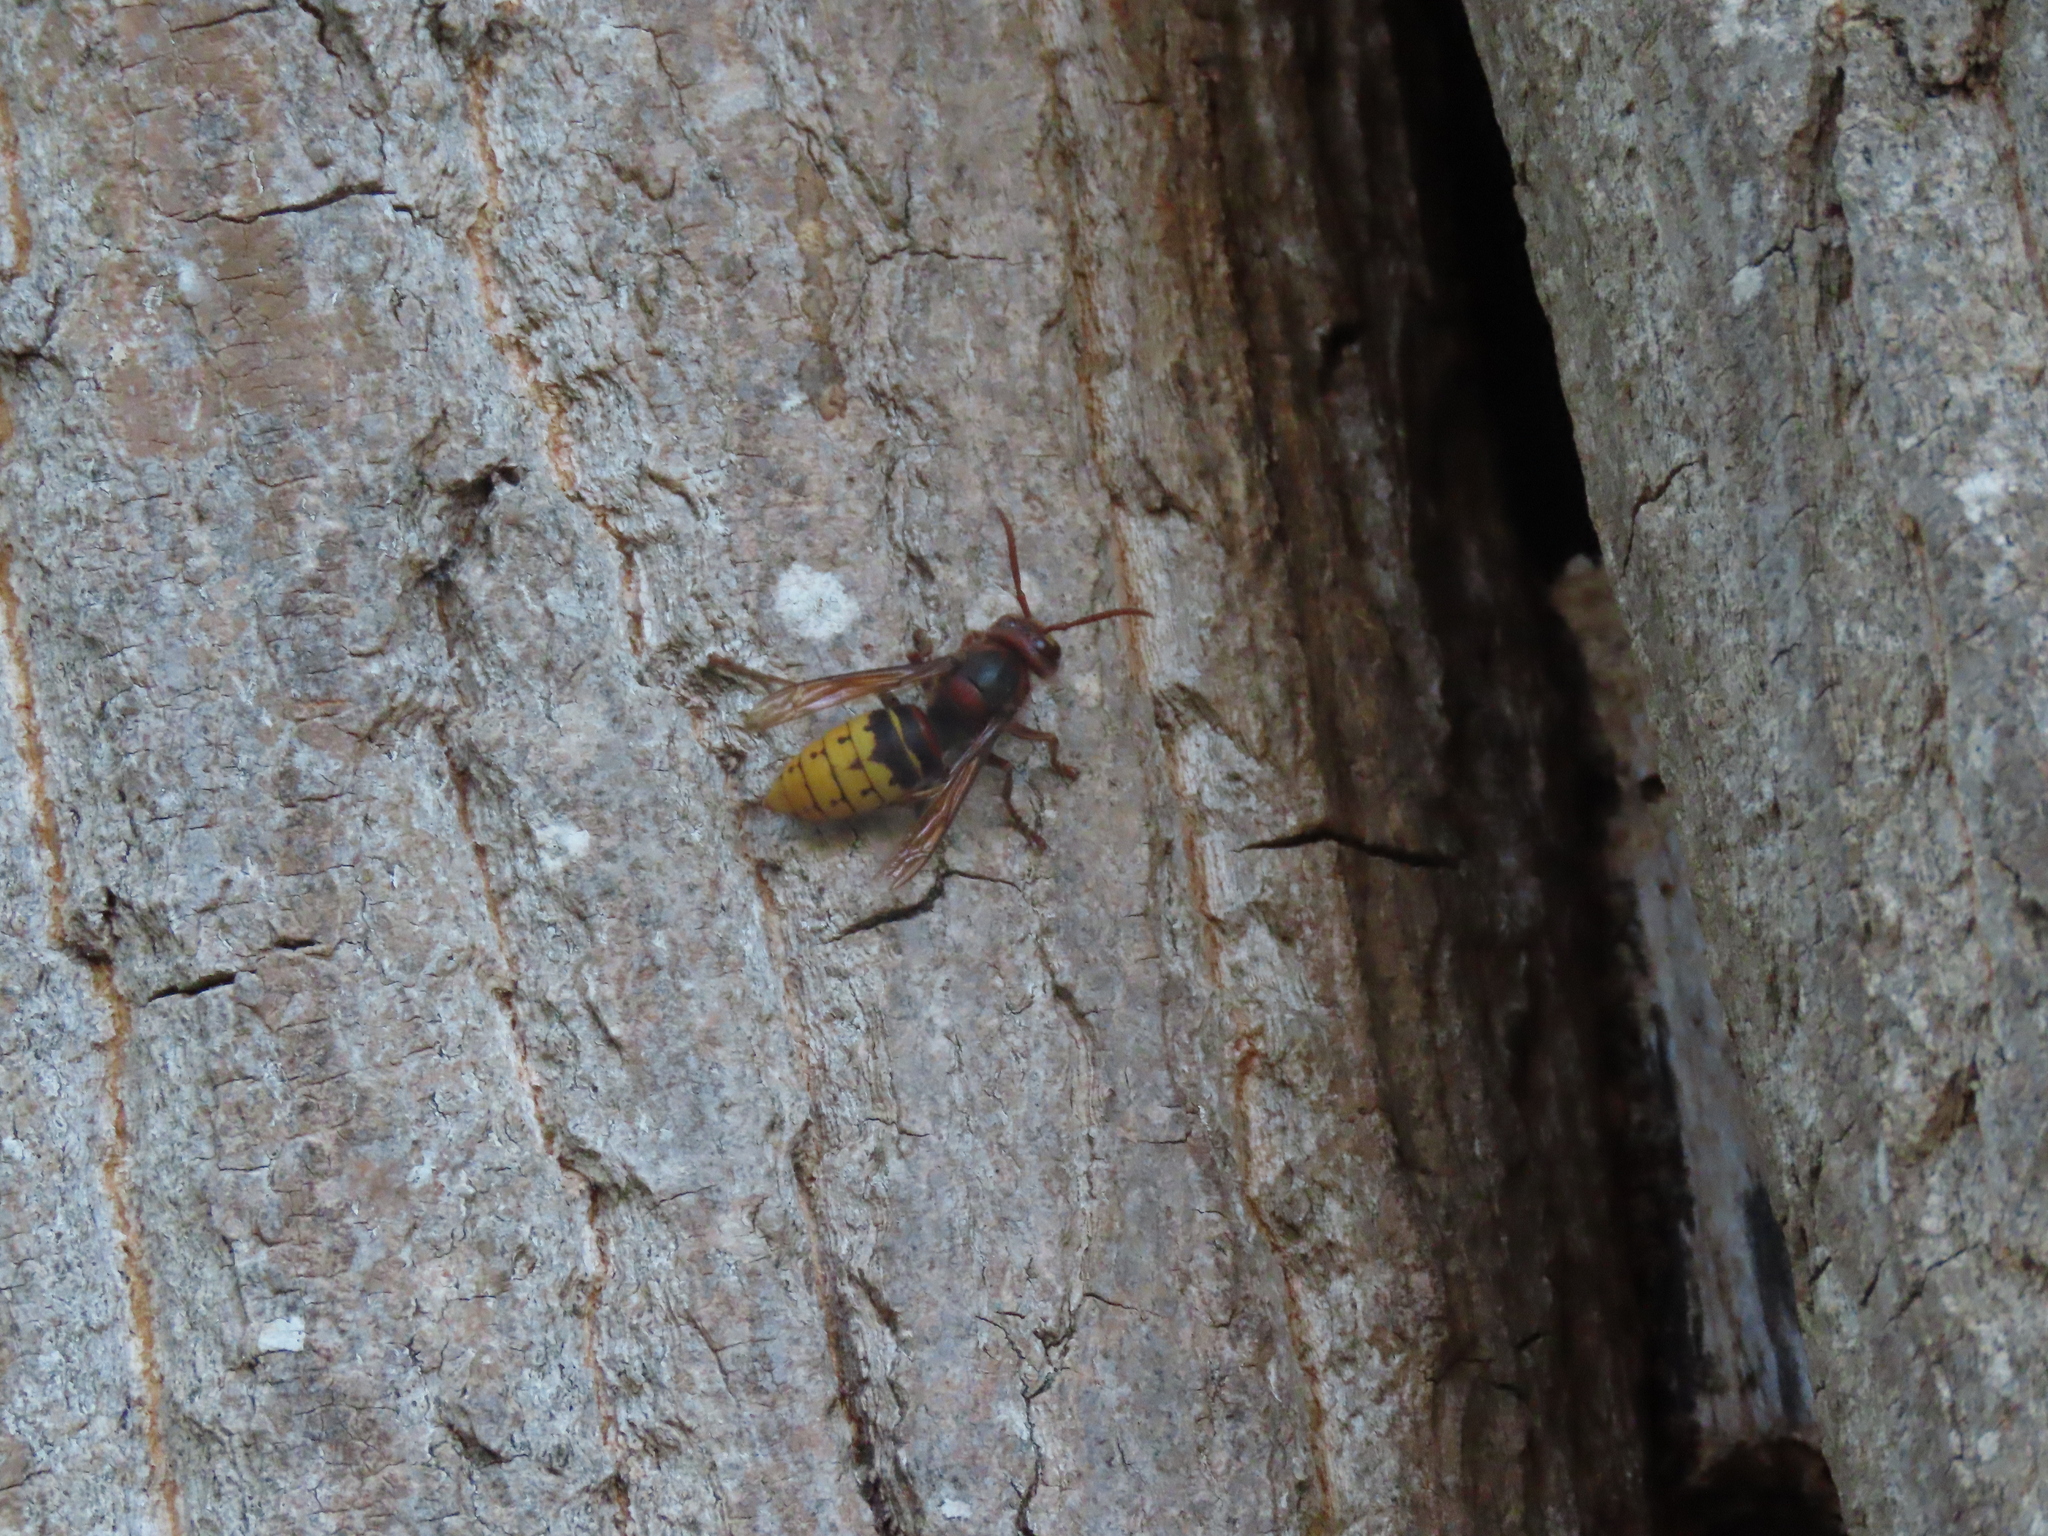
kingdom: Animalia
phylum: Arthropoda
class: Insecta
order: Hymenoptera
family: Vespidae
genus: Vespa
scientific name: Vespa crabro
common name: Hornet
